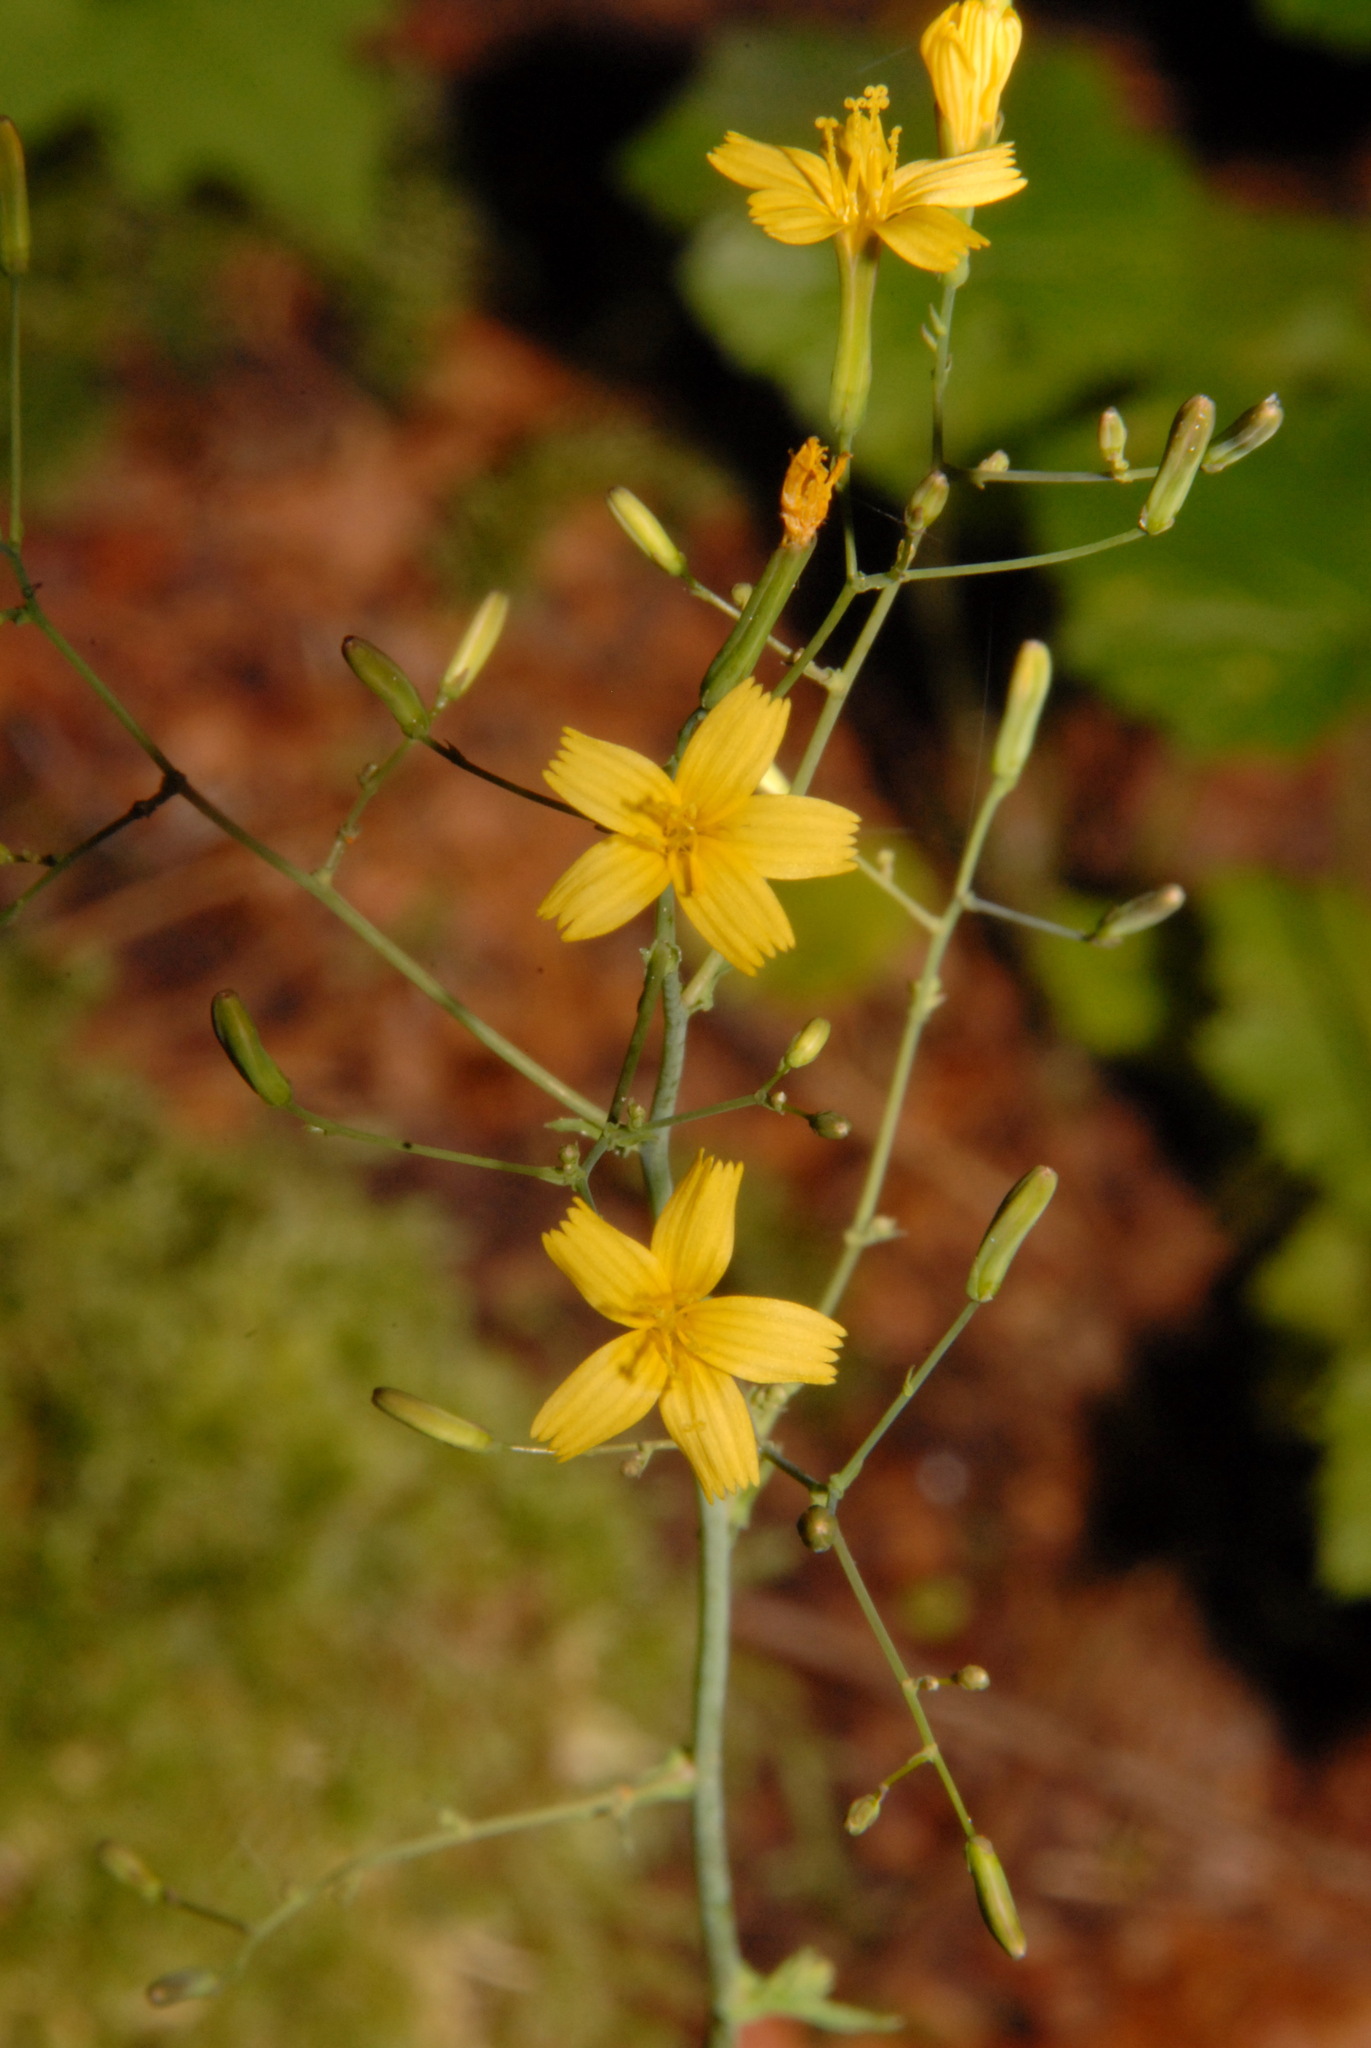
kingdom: Plantae
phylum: Tracheophyta
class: Magnoliopsida
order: Asterales
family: Asteraceae
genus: Mycelis
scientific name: Mycelis muralis
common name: Wall lettuce
